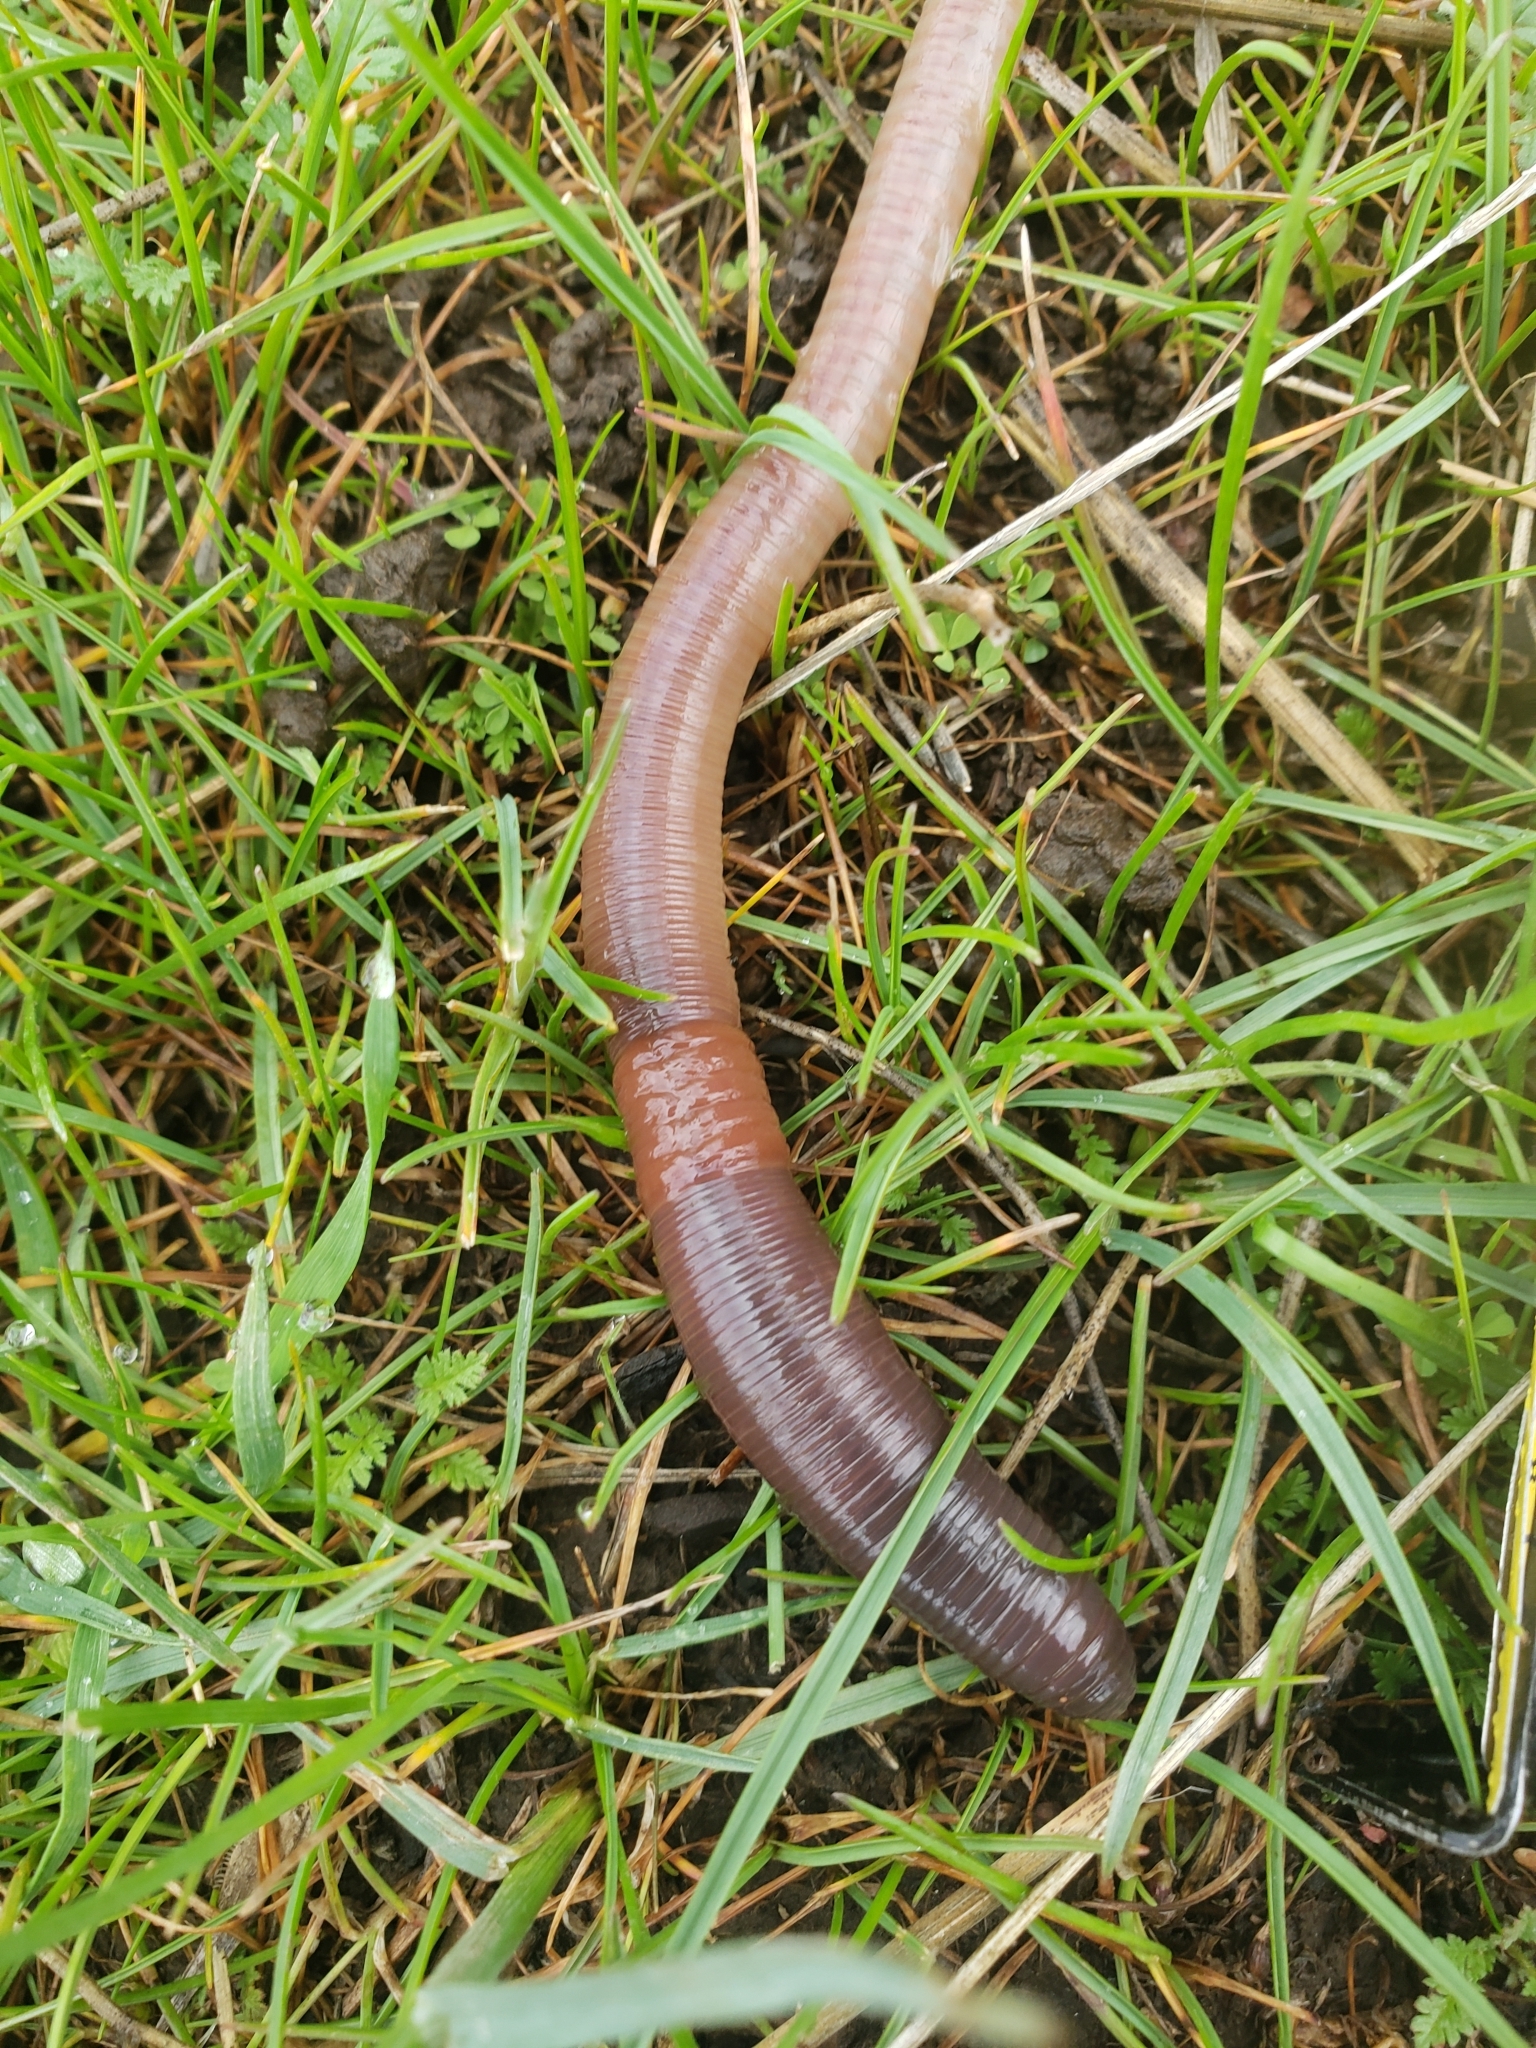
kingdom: Animalia
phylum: Annelida
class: Clitellata
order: Crassiclitellata
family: Lumbricidae
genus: Lumbricus
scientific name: Lumbricus terrestris
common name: Common earthworm
